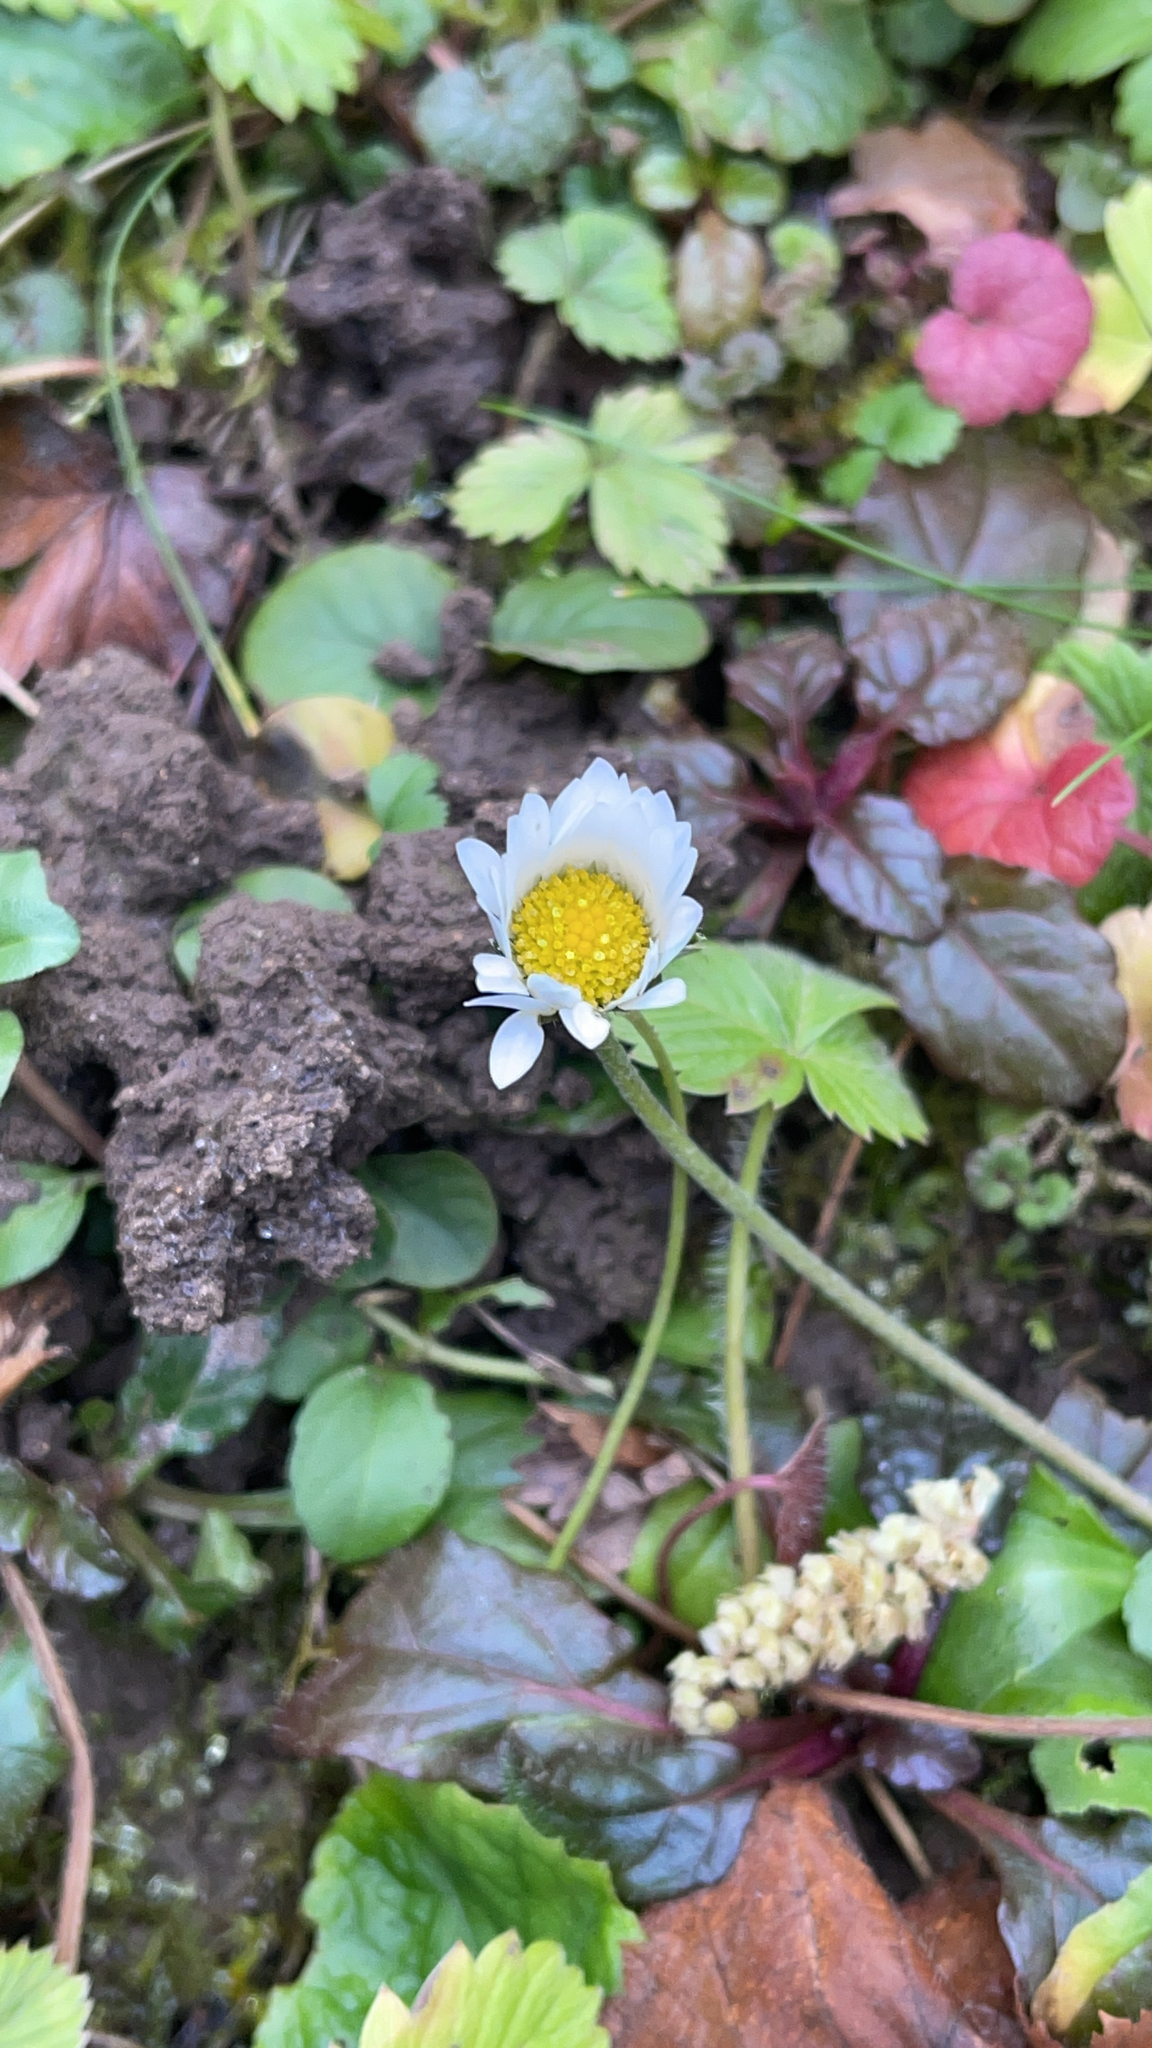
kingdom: Plantae
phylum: Tracheophyta
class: Magnoliopsida
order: Asterales
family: Asteraceae
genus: Bellis
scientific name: Bellis perennis
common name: Lawndaisy
